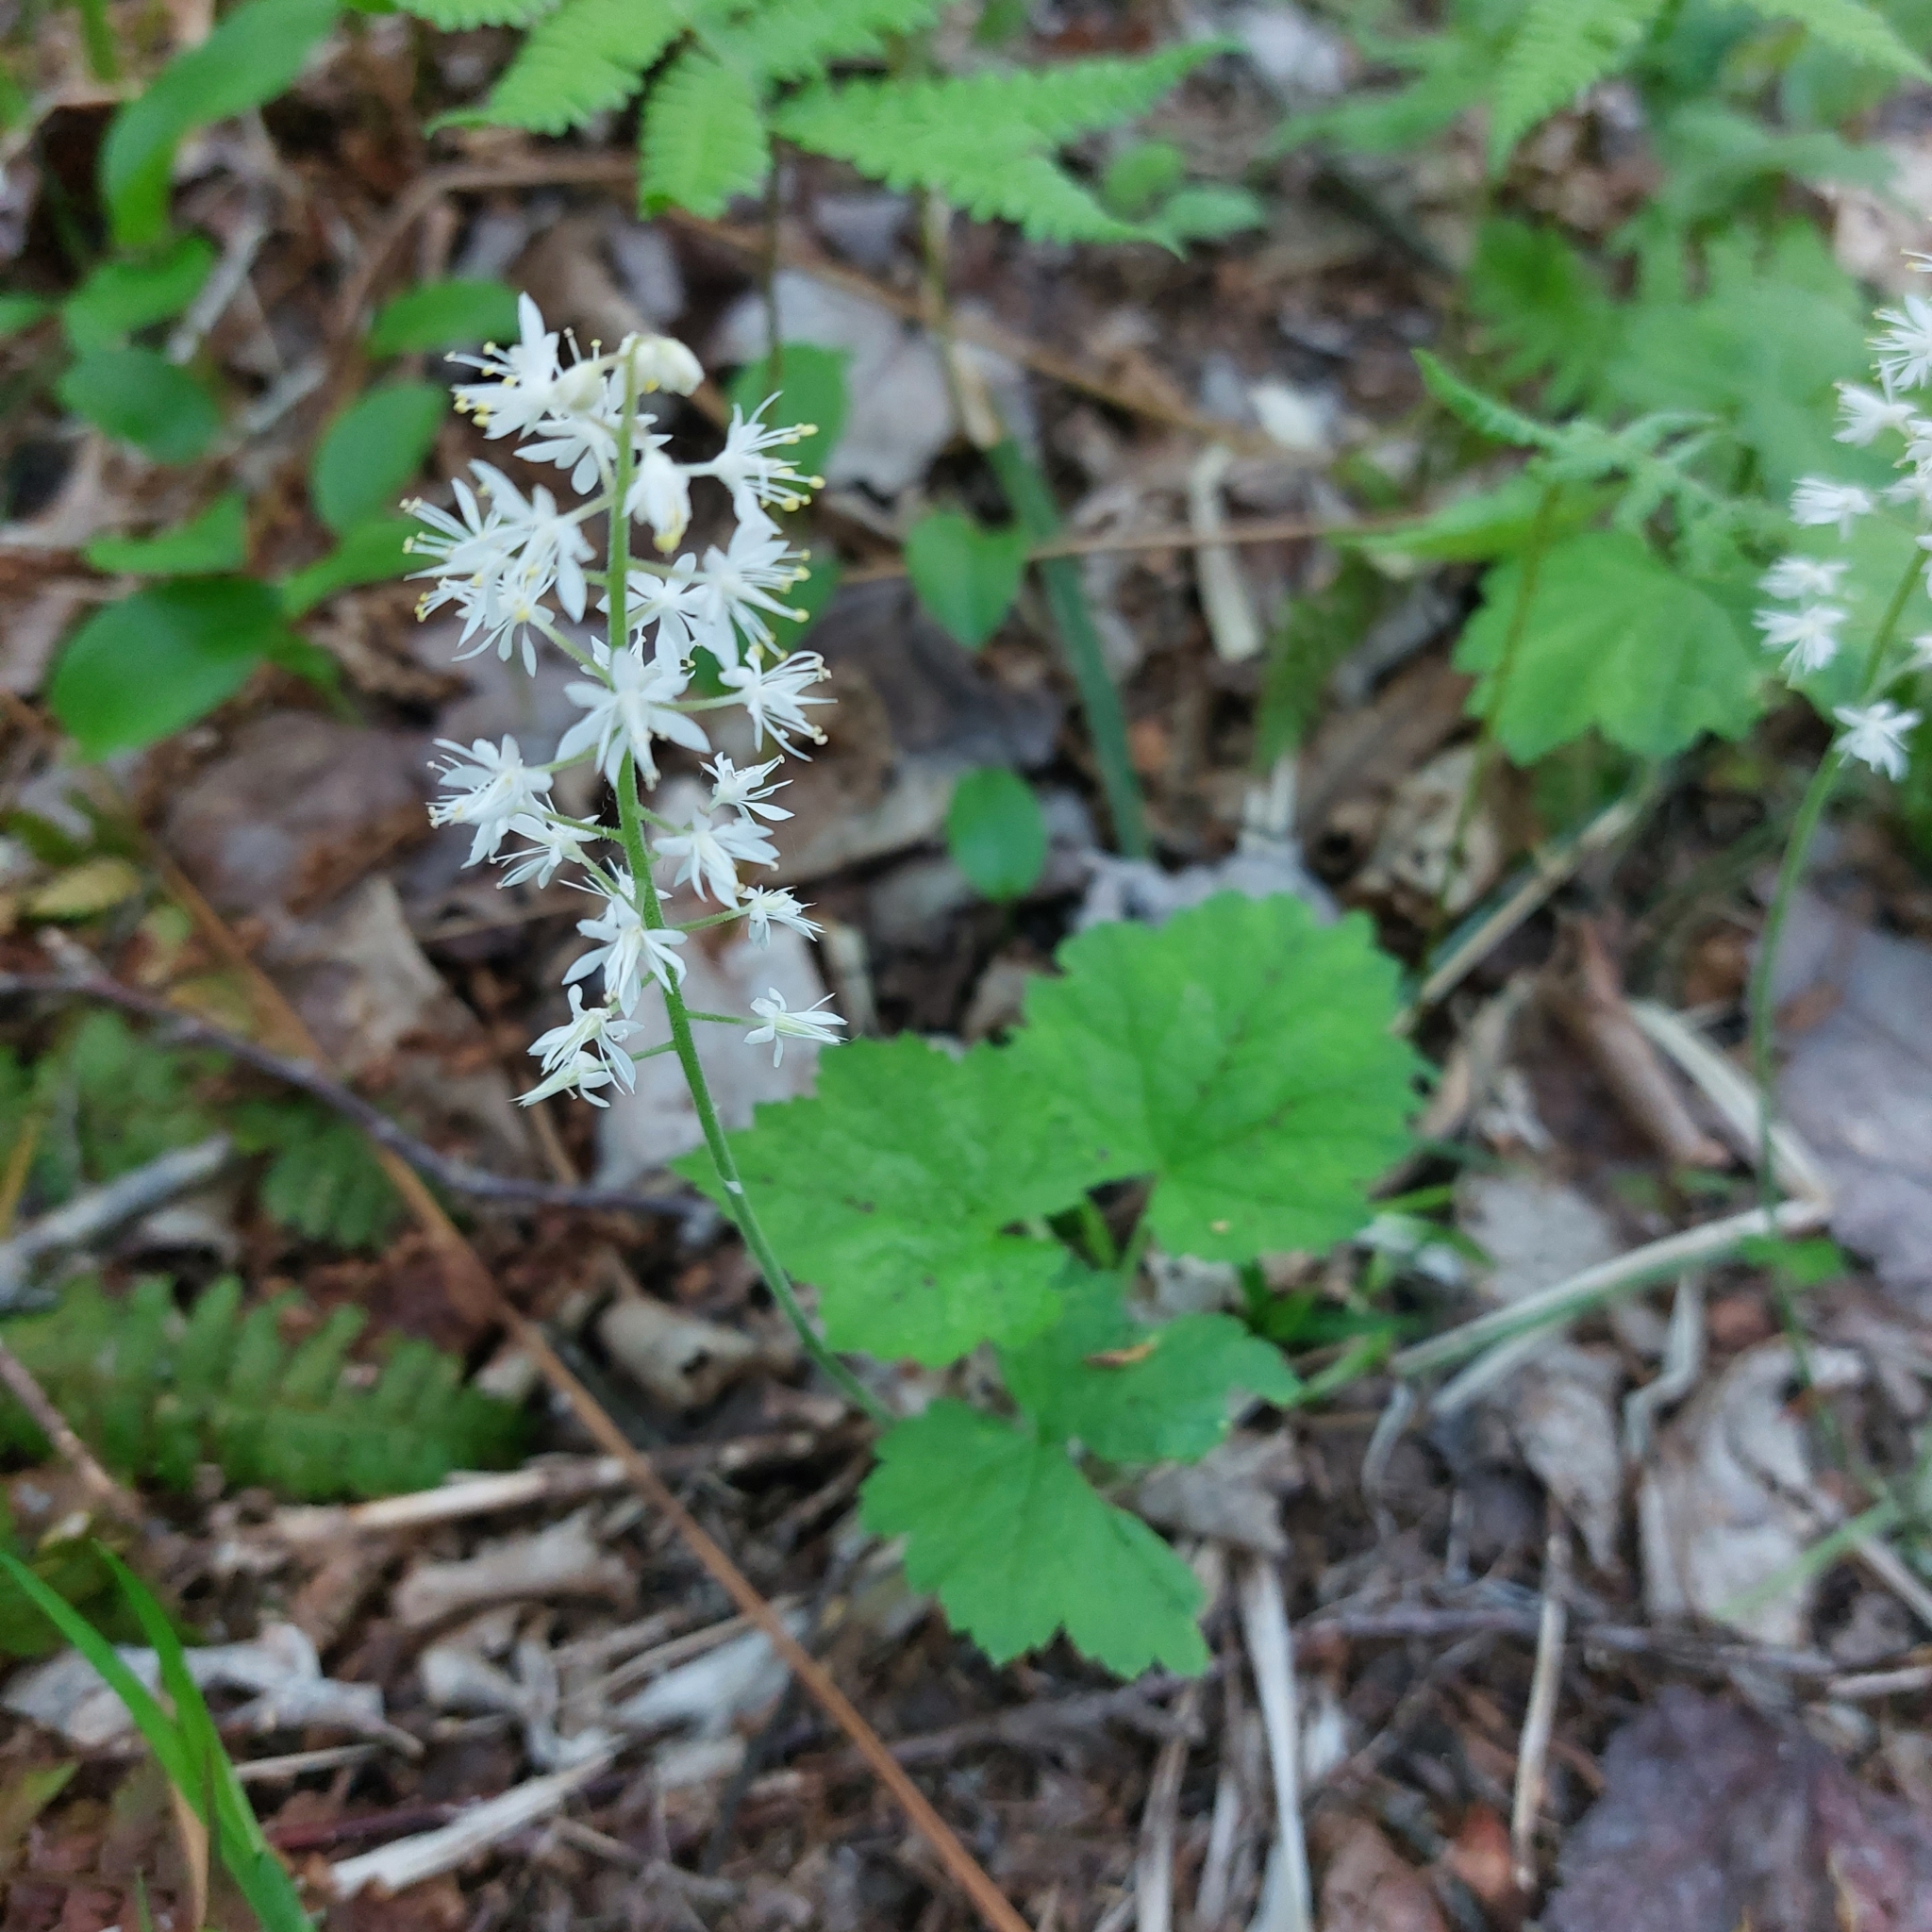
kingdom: Plantae
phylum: Tracheophyta
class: Magnoliopsida
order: Saxifragales
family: Saxifragaceae
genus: Tiarella
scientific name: Tiarella stolonifera
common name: Stoloniferous foamflower
